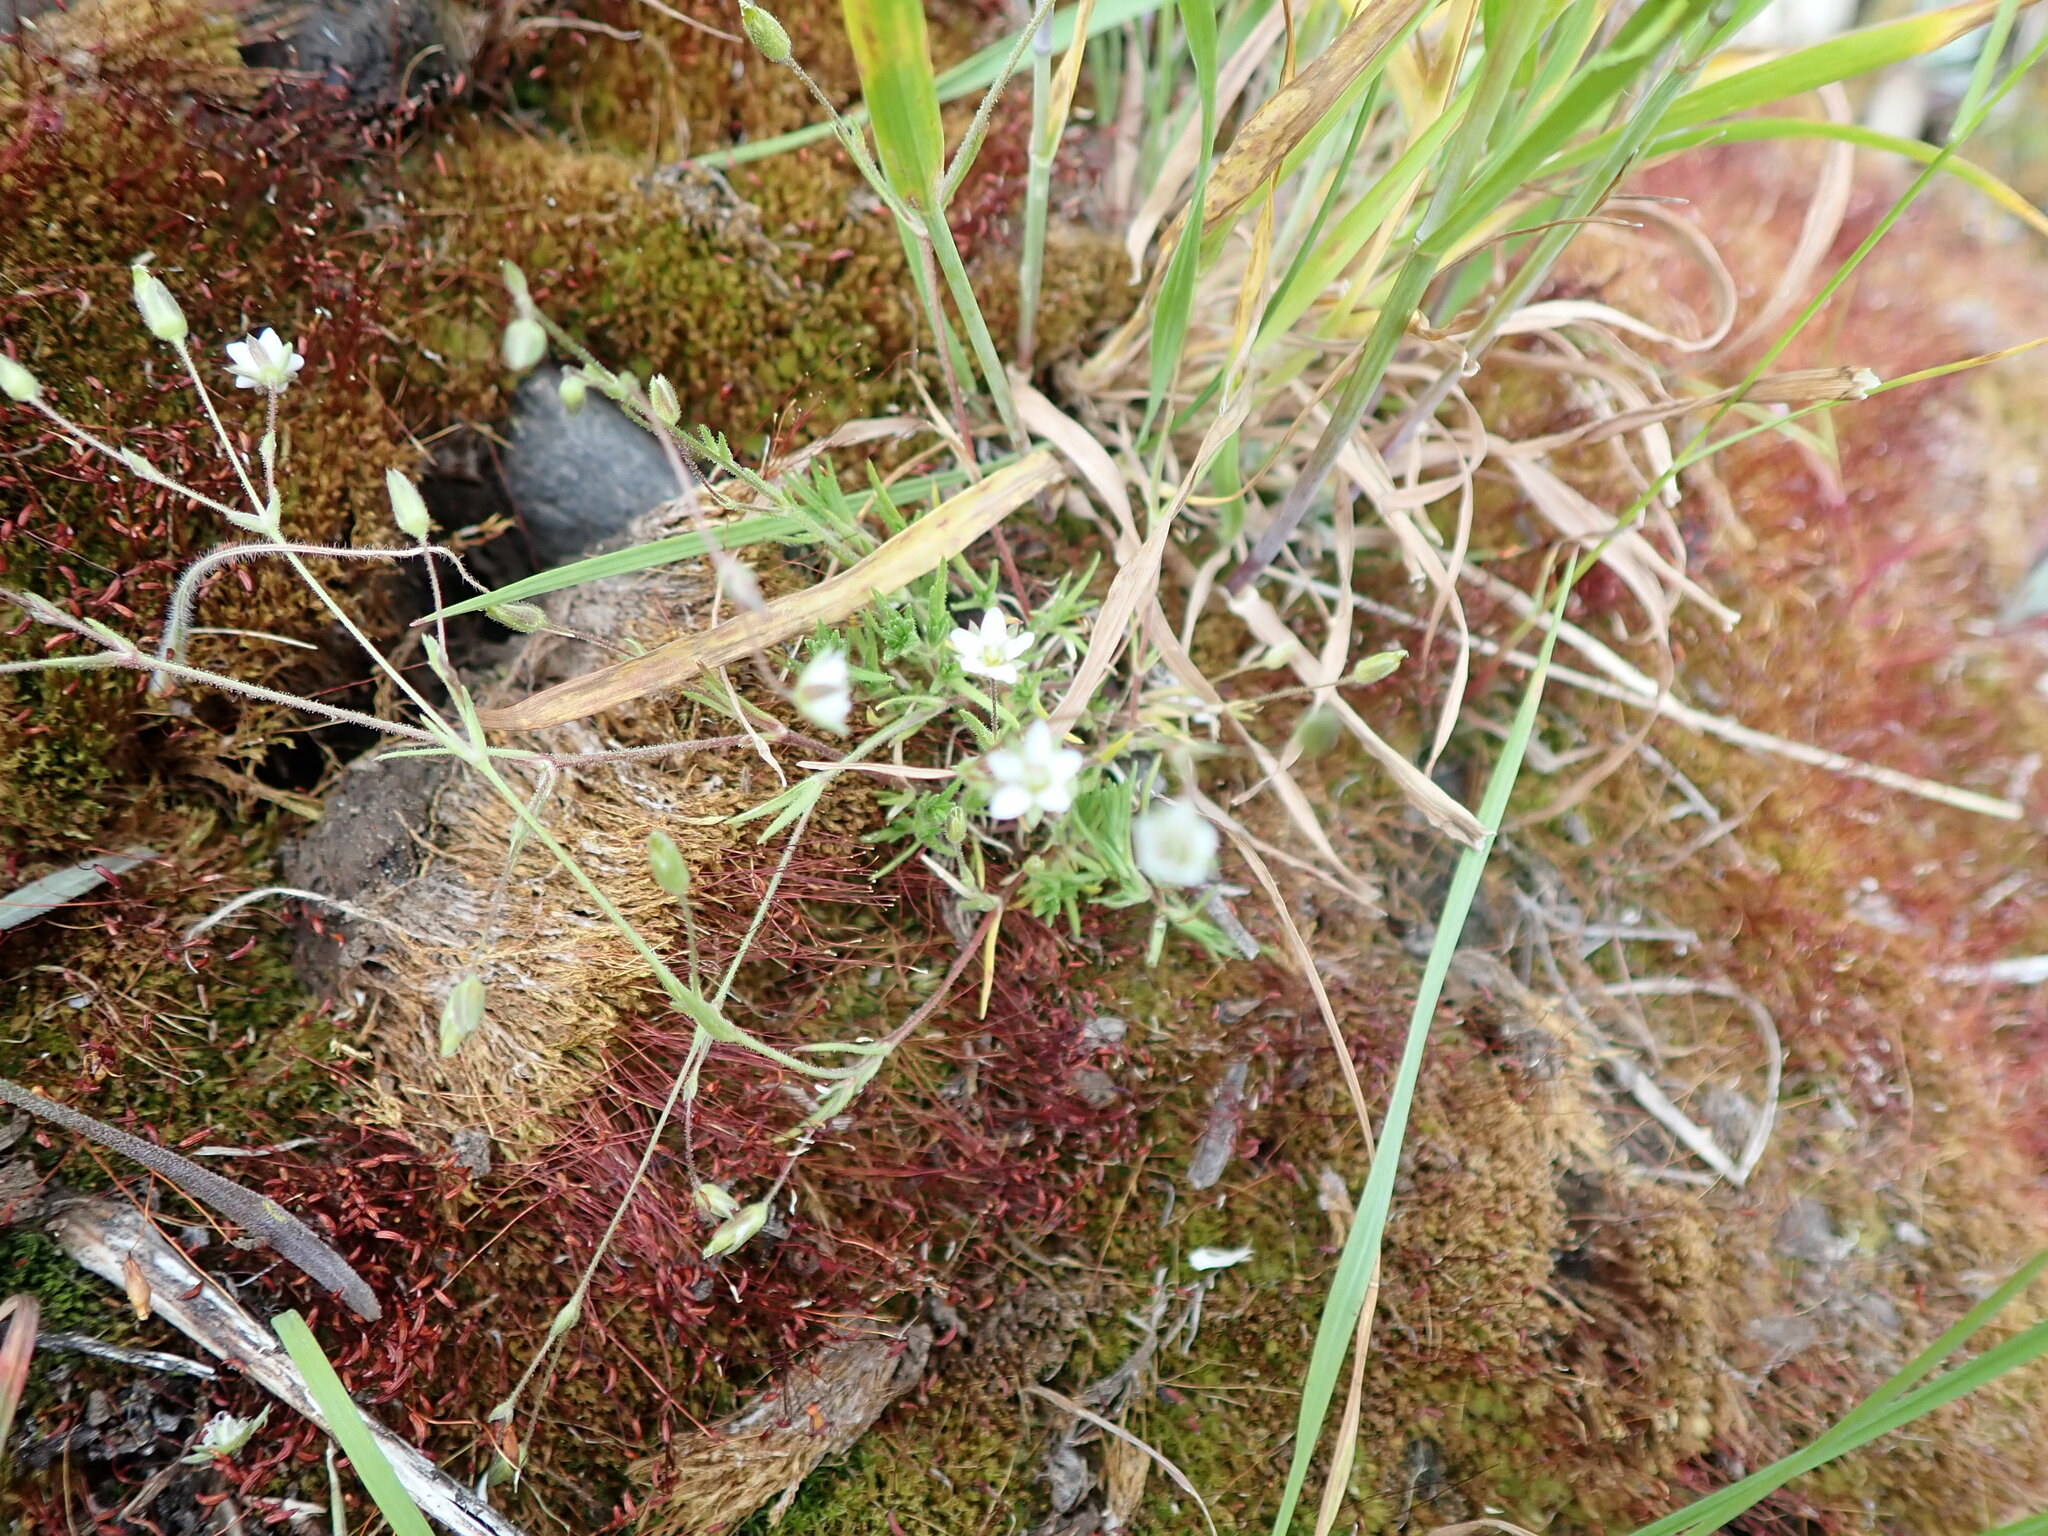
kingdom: Plantae
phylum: Tracheophyta
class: Magnoliopsida
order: Caryophyllales
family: Caryophyllaceae
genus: Sabulina
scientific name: Sabulina rubella
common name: Beautiful sandwort
